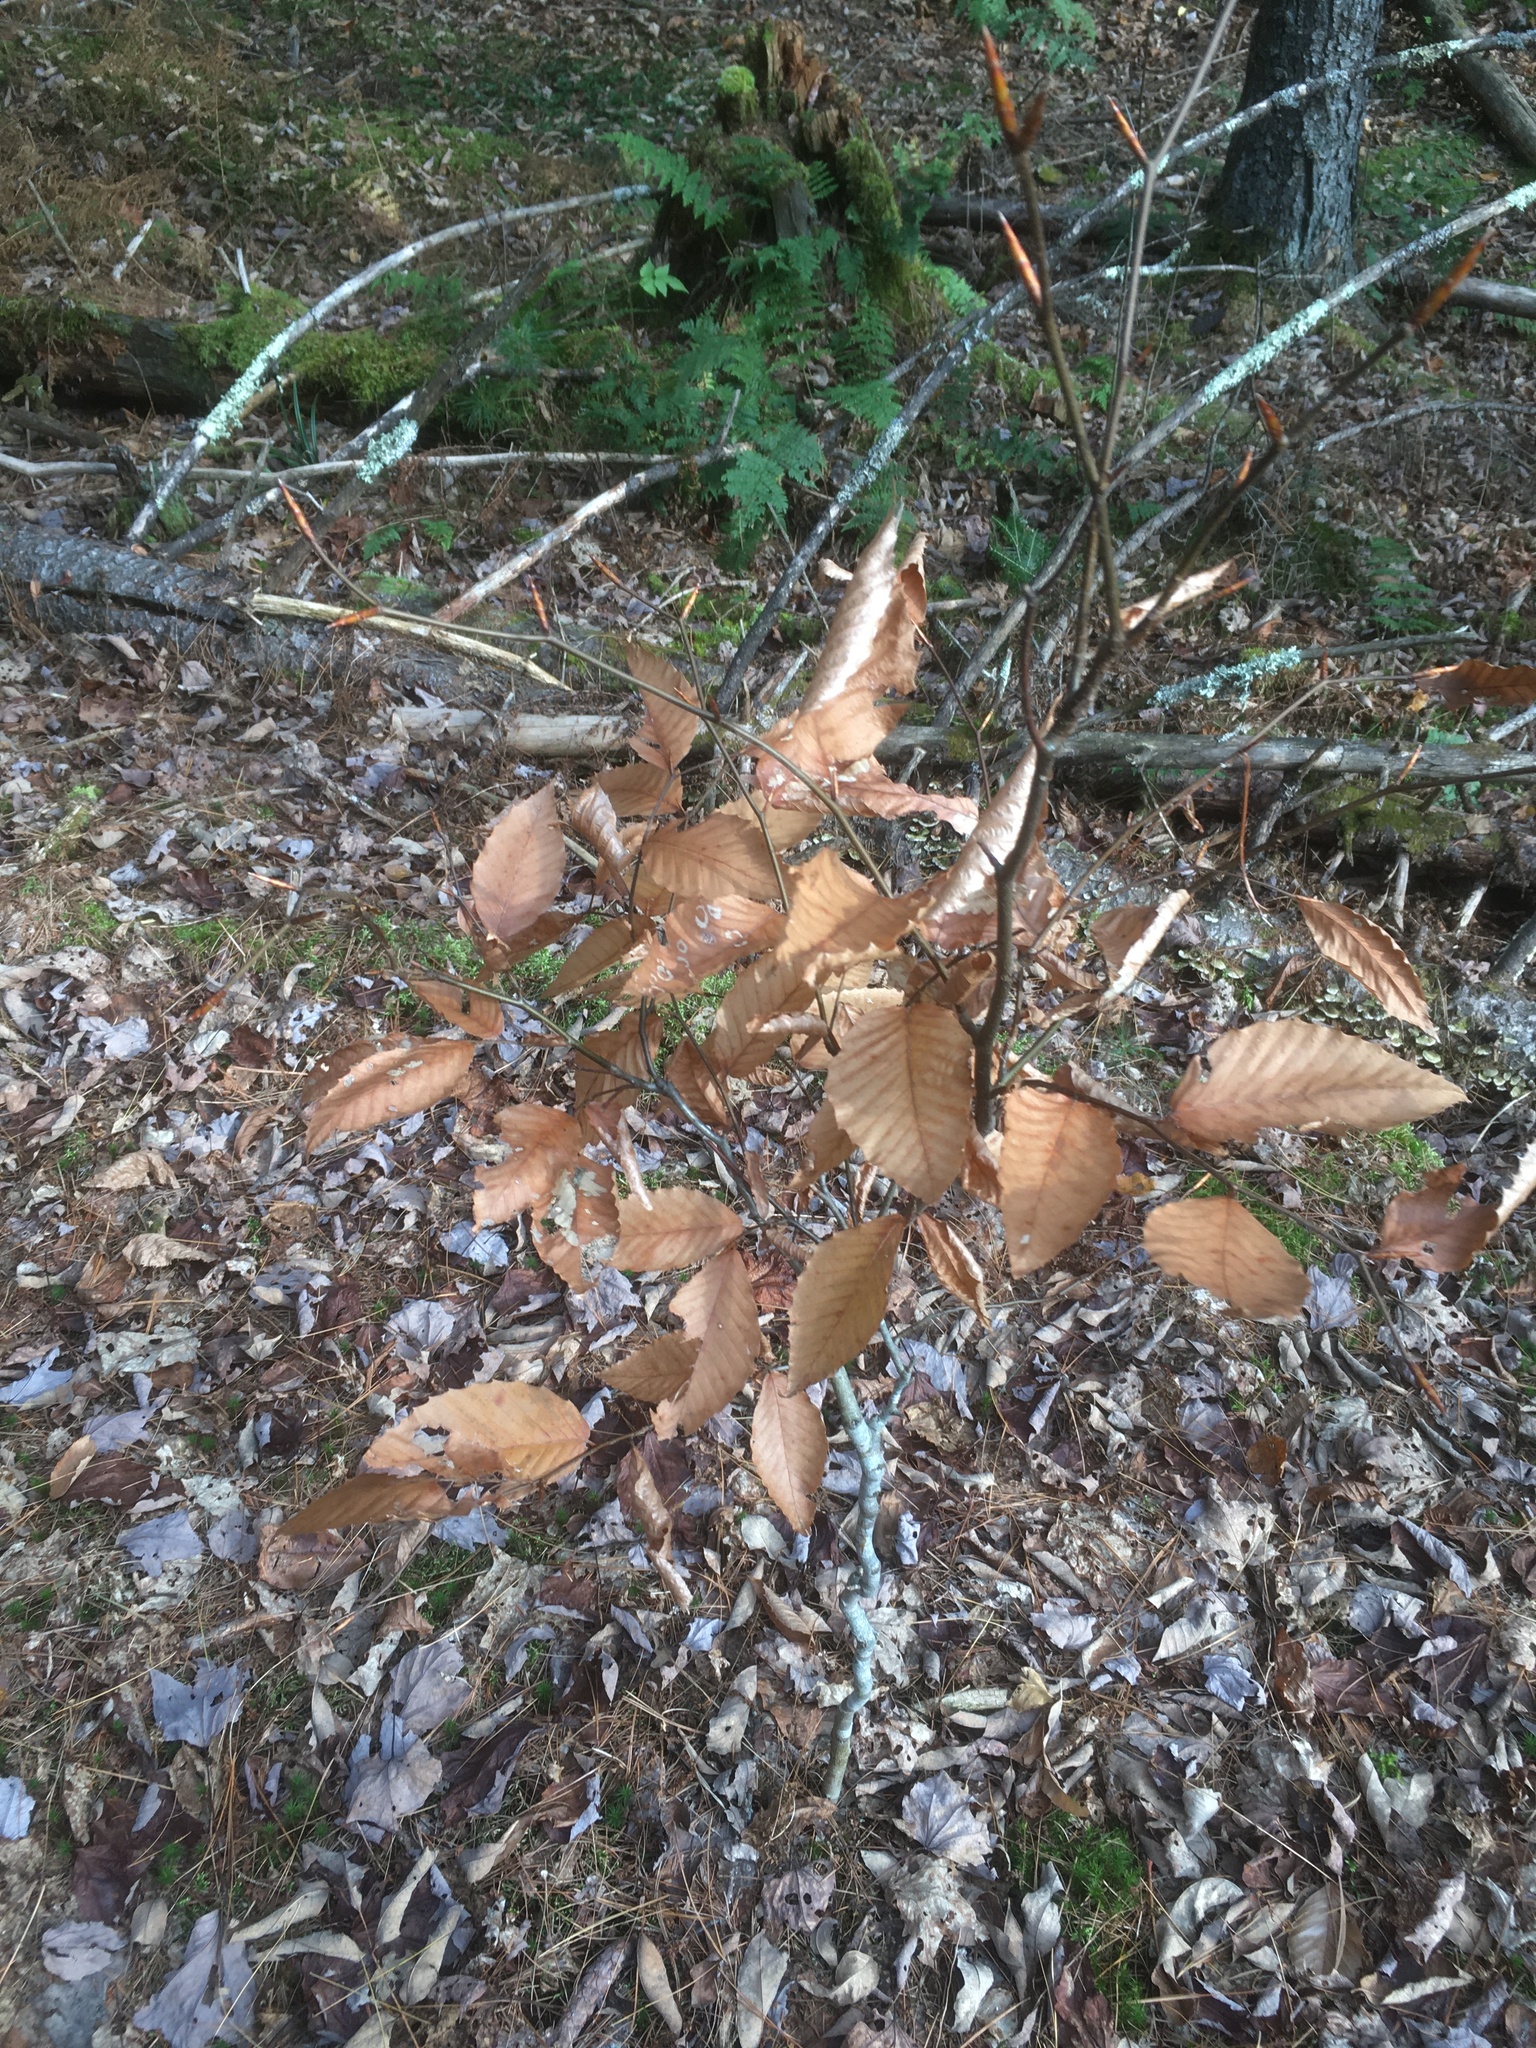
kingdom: Plantae
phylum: Tracheophyta
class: Magnoliopsida
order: Fagales
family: Fagaceae
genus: Fagus
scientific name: Fagus grandifolia
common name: American beech
